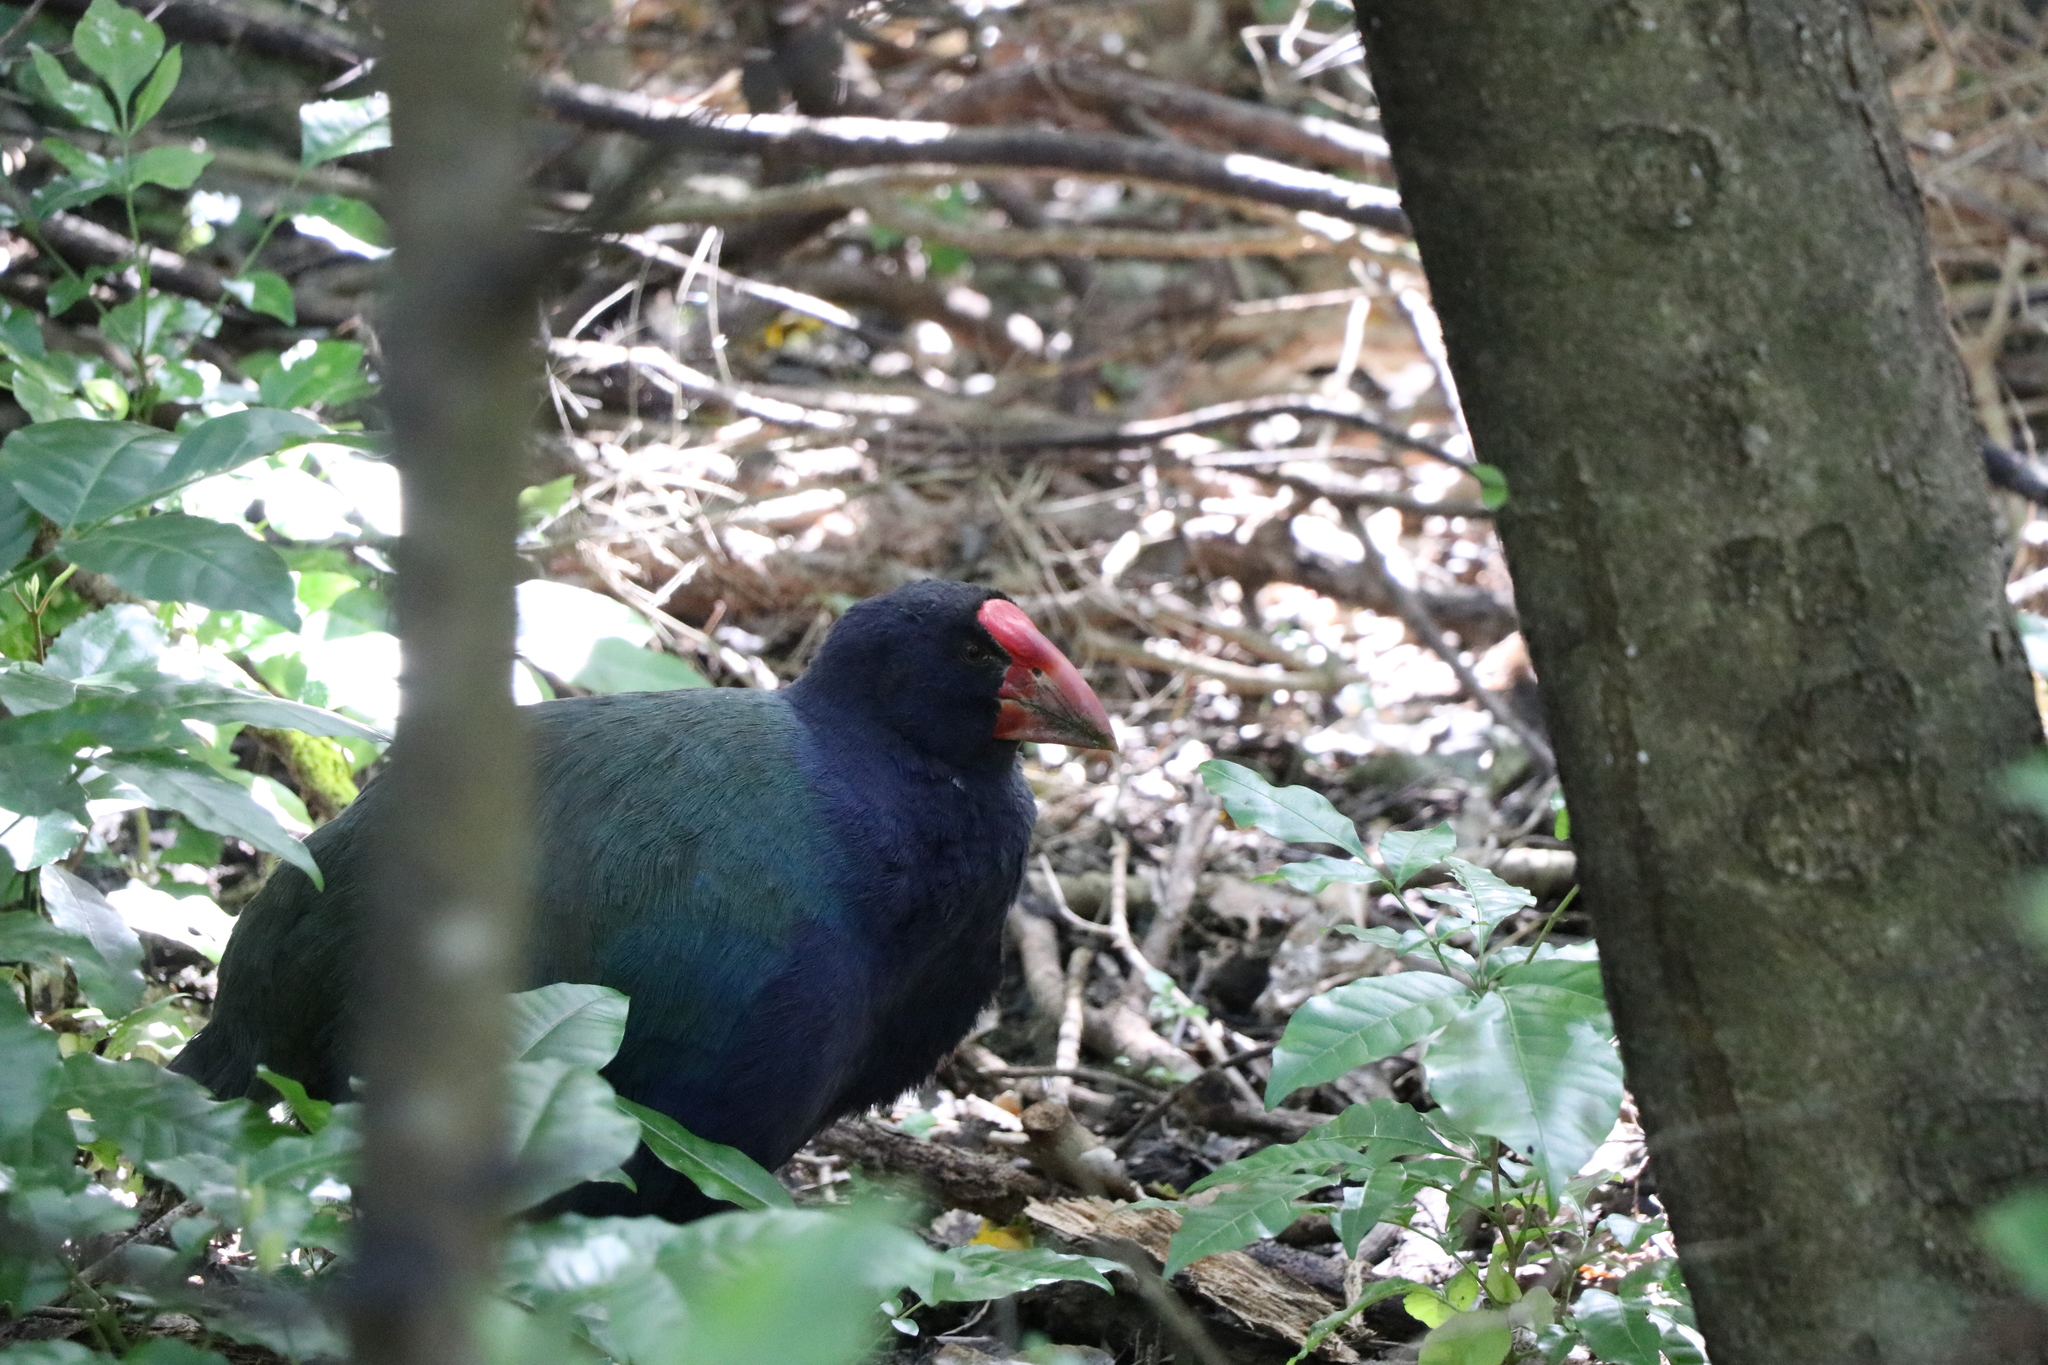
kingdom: Animalia
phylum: Chordata
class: Aves
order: Gruiformes
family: Rallidae
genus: Porphyrio
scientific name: Porphyrio hochstetteri
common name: South island takahe
